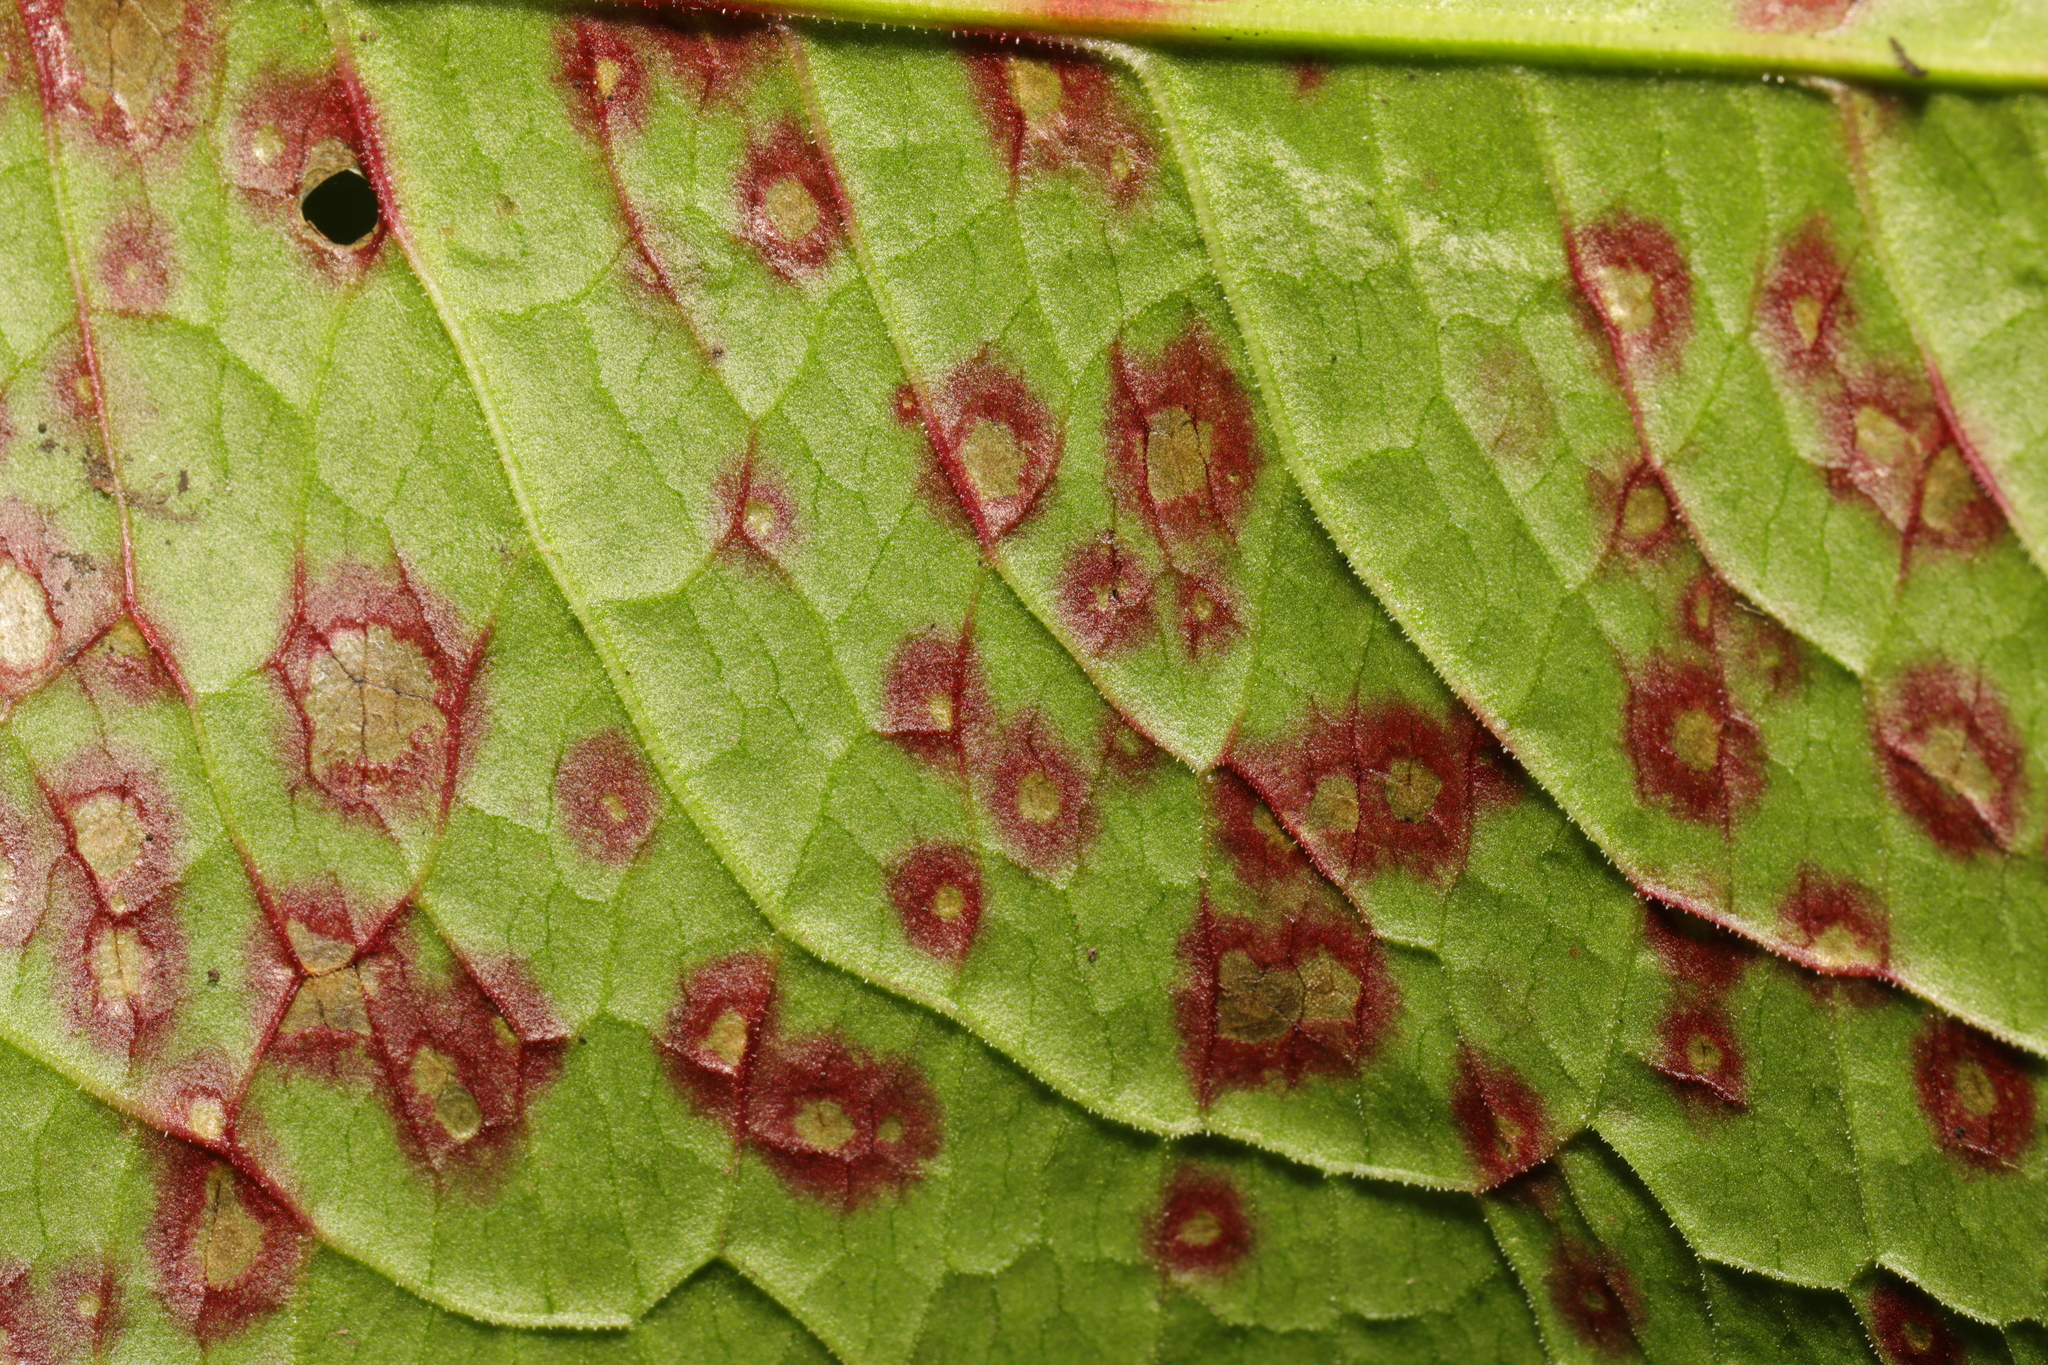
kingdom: Fungi
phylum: Ascomycota
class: Dothideomycetes
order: Mycosphaerellales
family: Mycosphaerellaceae
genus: Ramularia
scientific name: Ramularia rubella
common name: Red dock spot
